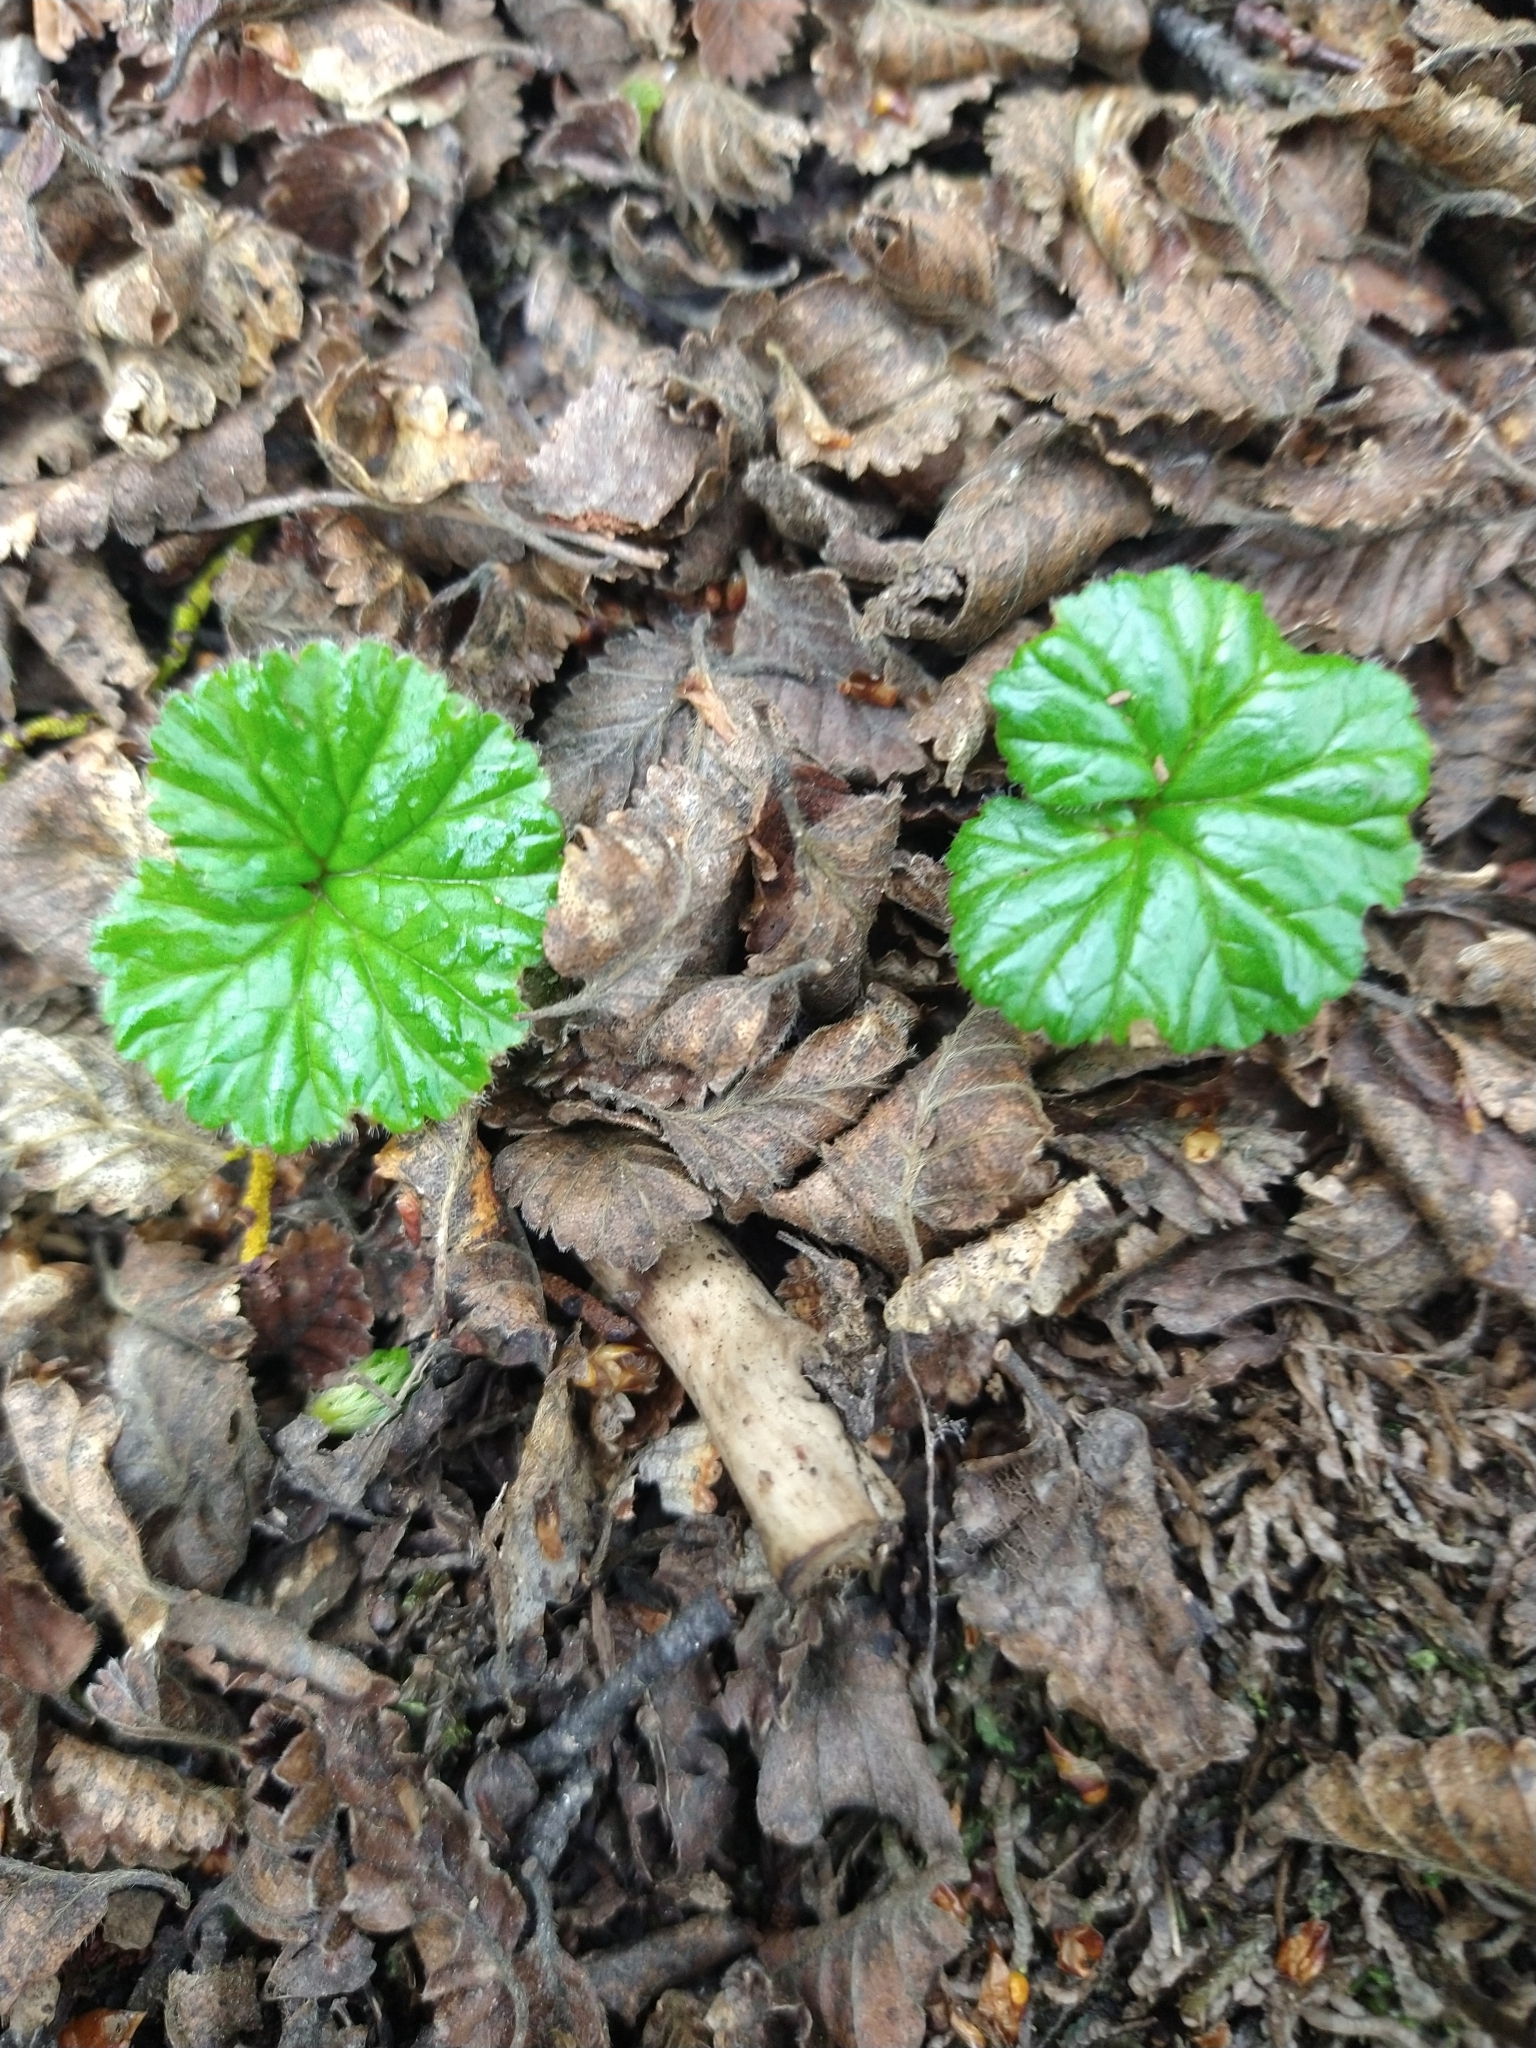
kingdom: Plantae
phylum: Tracheophyta
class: Magnoliopsida
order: Gunnerales
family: Gunneraceae
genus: Gunnera
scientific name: Gunnera magellanica
